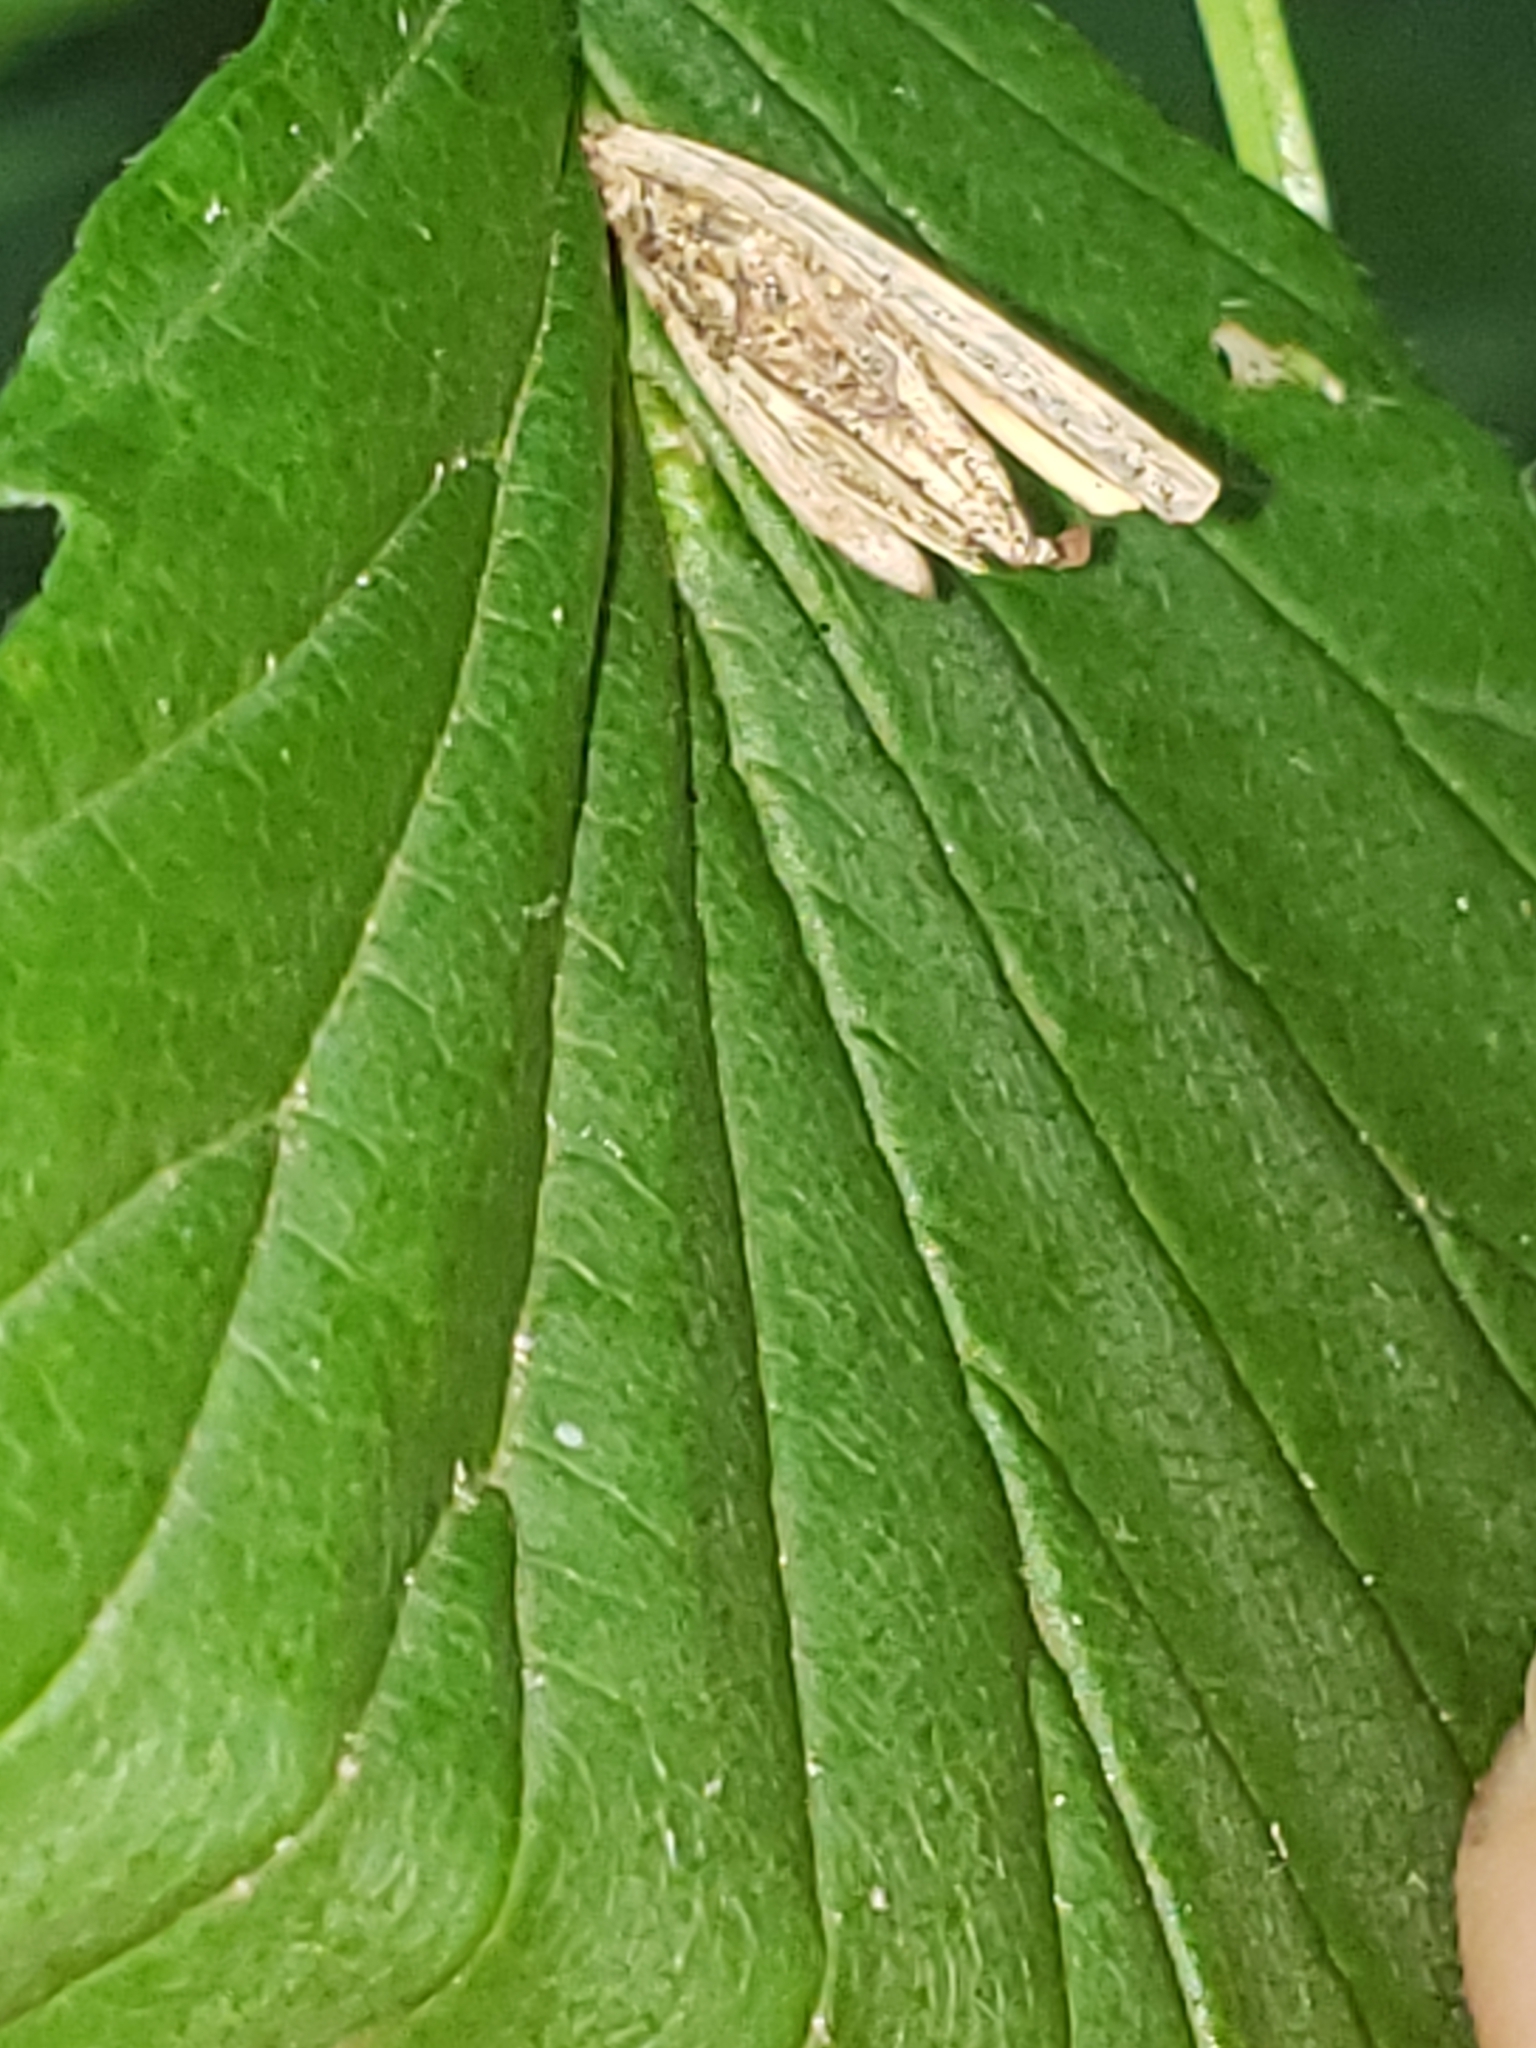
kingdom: Animalia
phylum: Arthropoda
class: Insecta
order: Lepidoptera
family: Psychidae
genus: Psyche
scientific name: Psyche casta
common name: Common sweep
